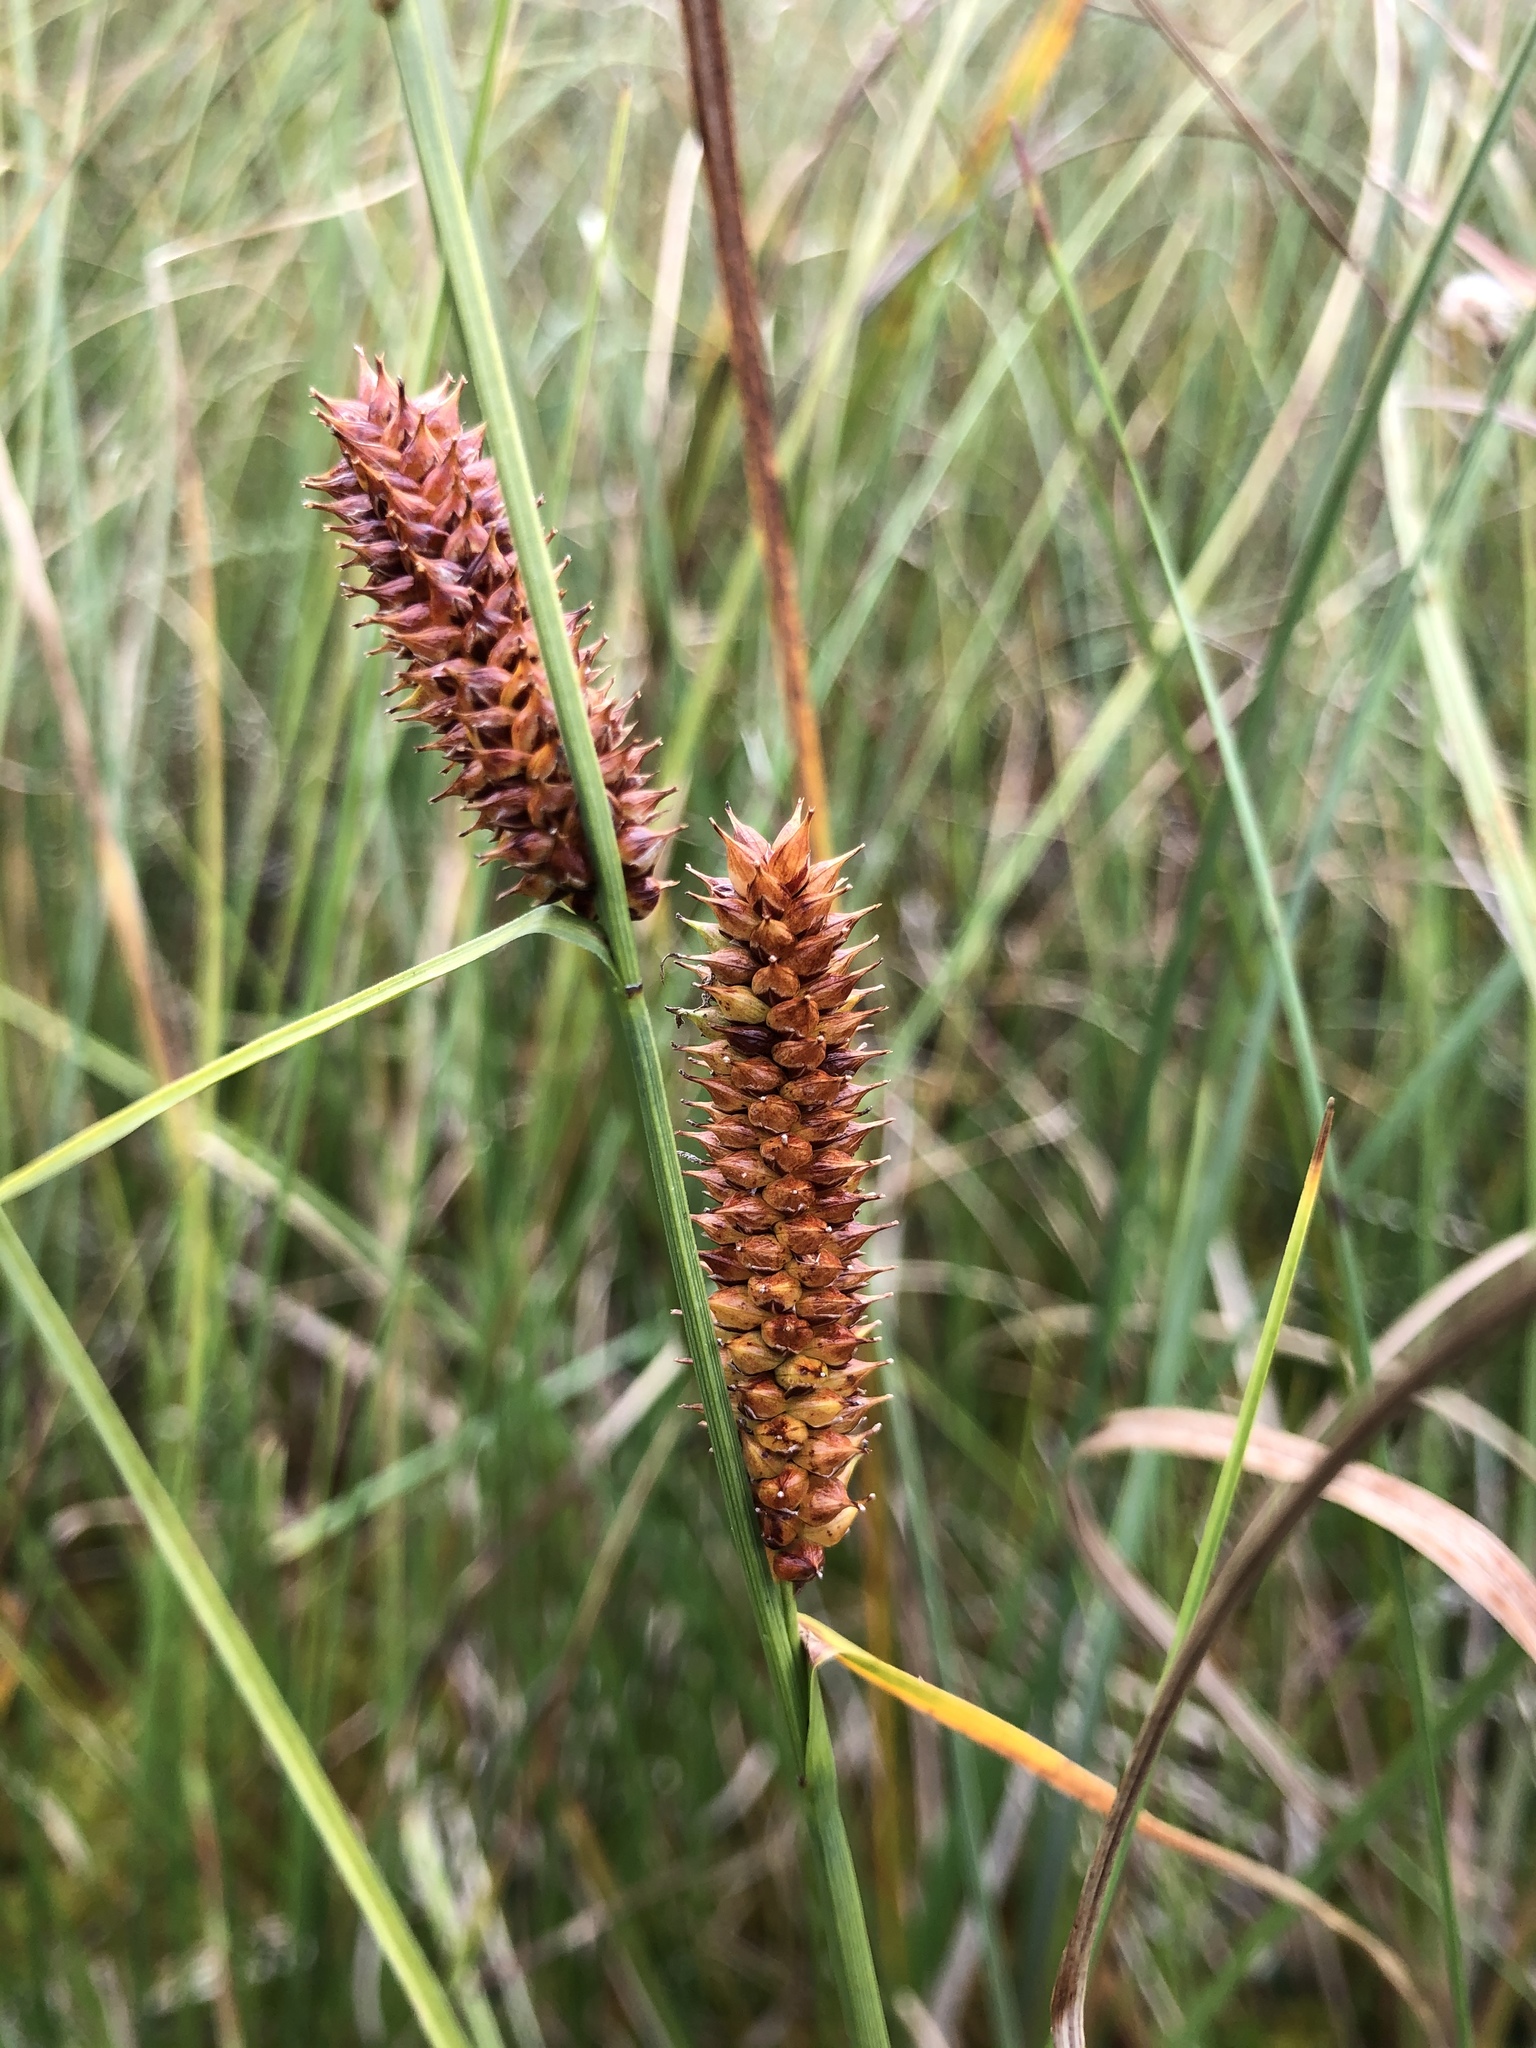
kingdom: Plantae
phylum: Tracheophyta
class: Liliopsida
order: Poales
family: Cyperaceae
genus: Carex
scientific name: Carex rotundata
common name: Round-fruited sedge
